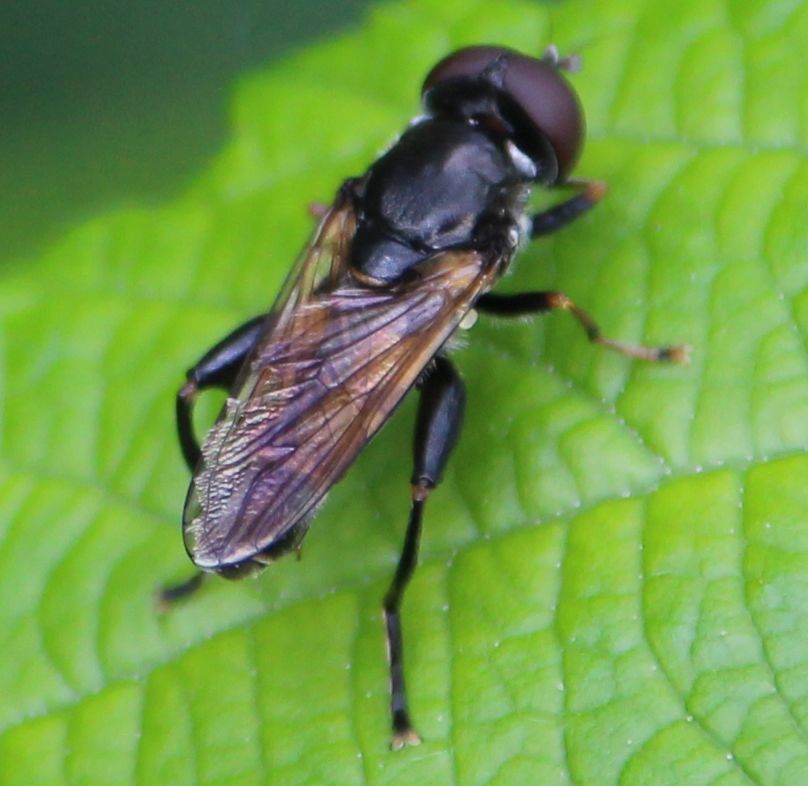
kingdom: Animalia
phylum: Arthropoda
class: Insecta
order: Diptera
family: Syrphidae
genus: Tropidia
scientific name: Tropidia scita
